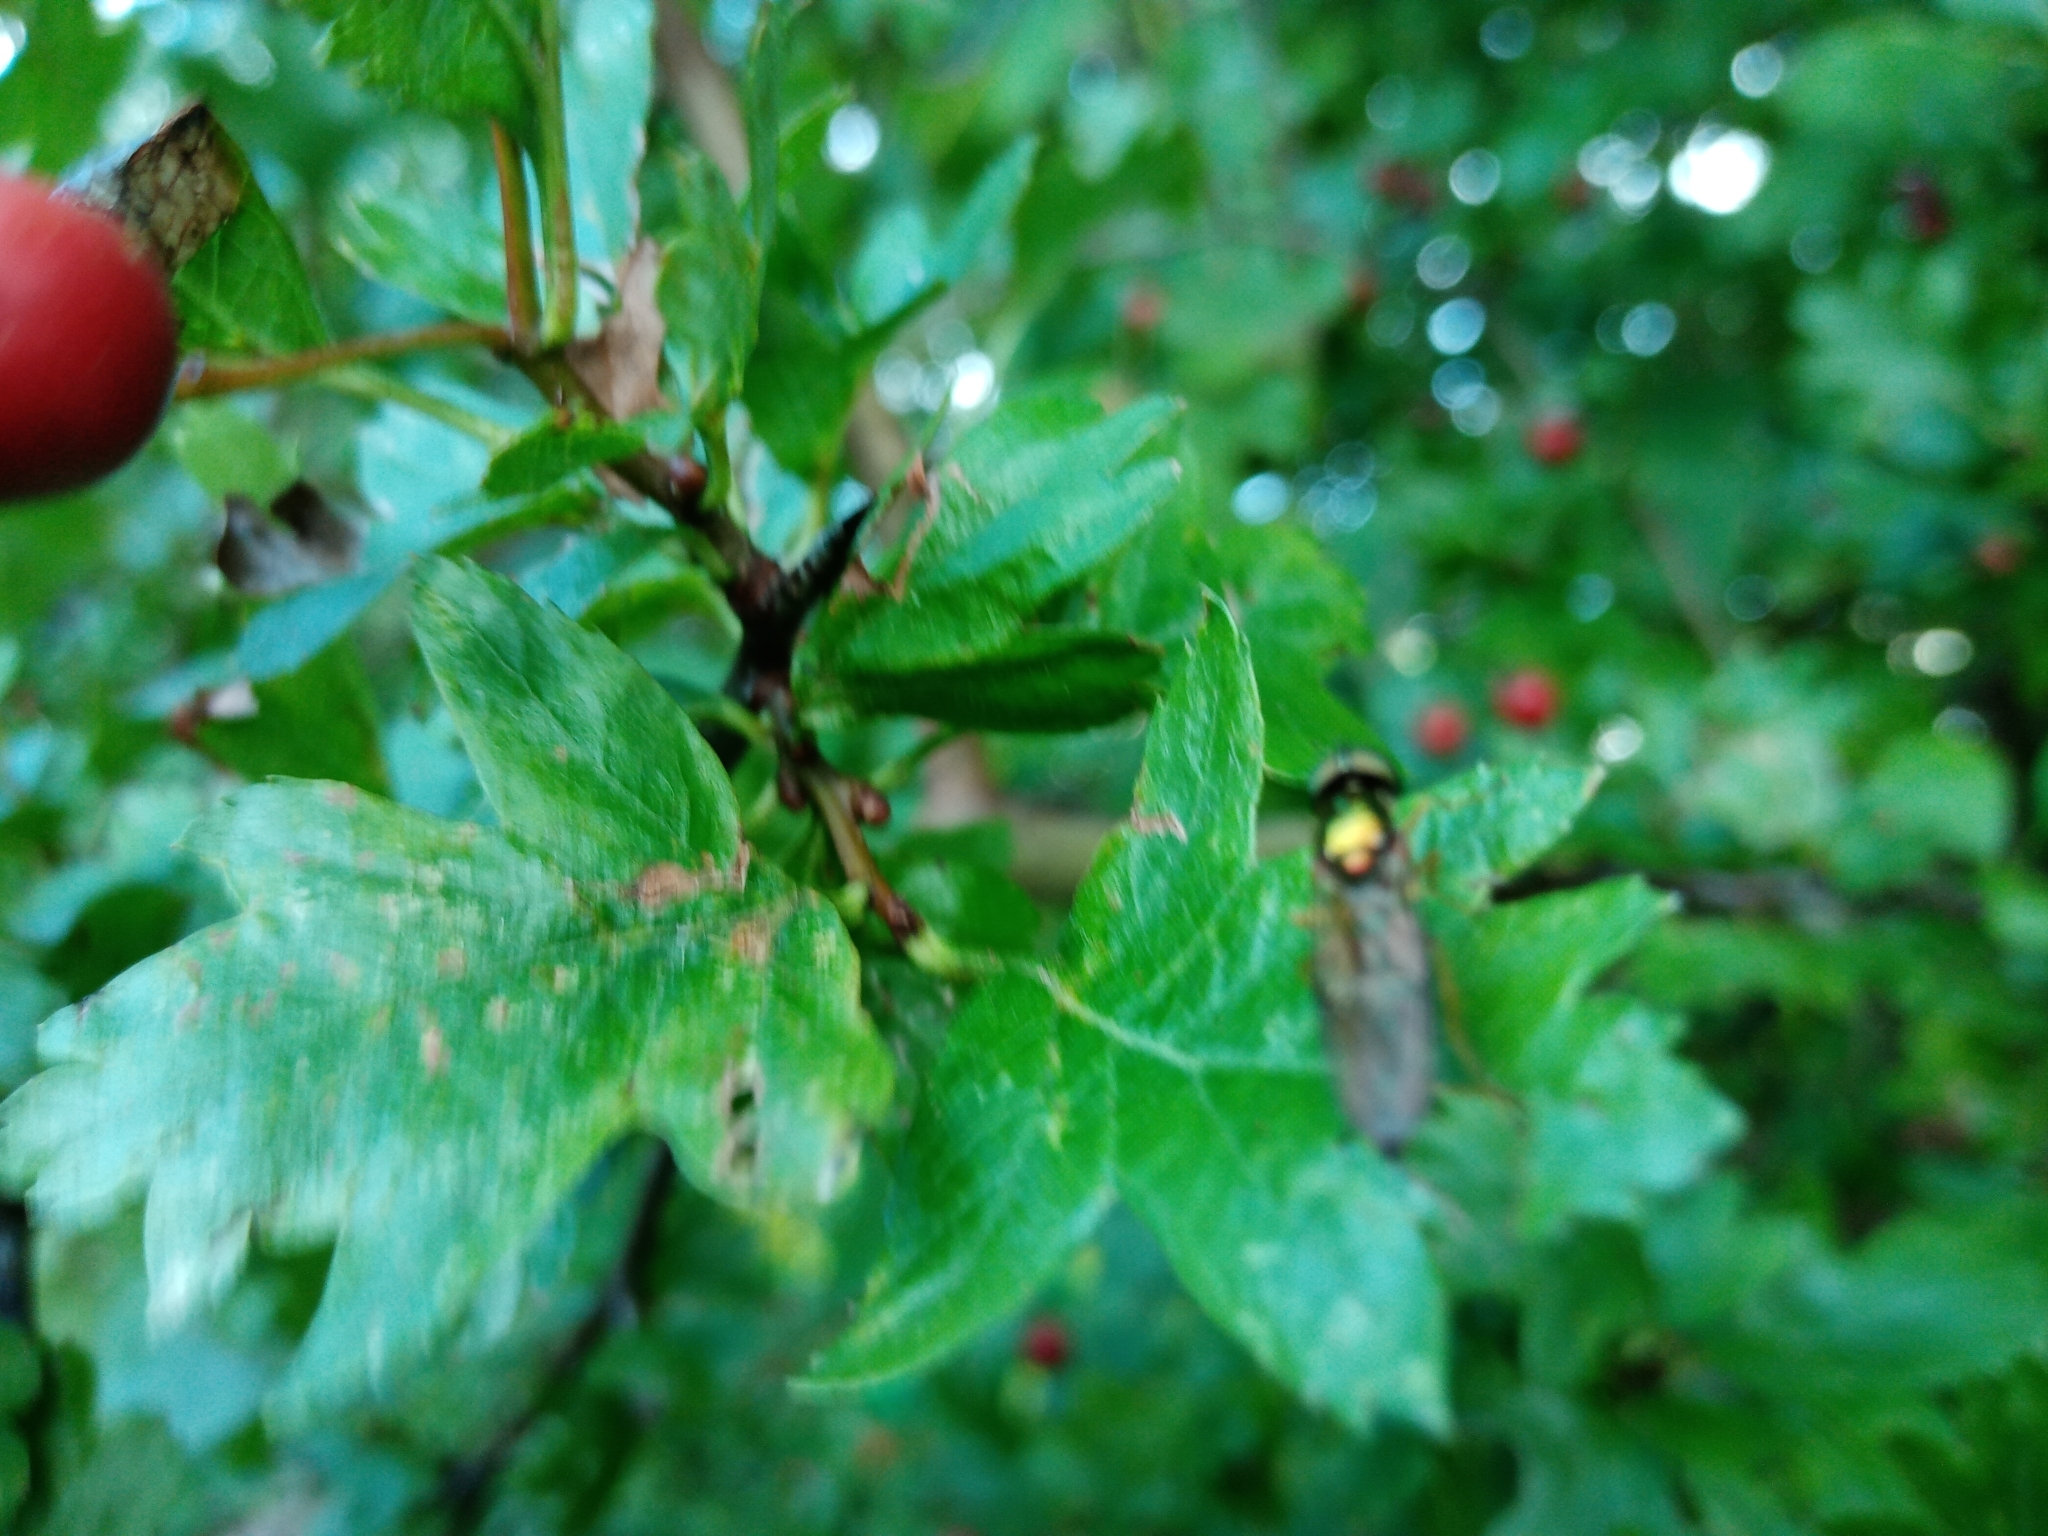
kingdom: Animalia
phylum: Arthropoda
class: Insecta
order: Diptera
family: Stratiomyidae
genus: Sargus
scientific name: Sargus bipunctatus
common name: Twin-spot centurion
